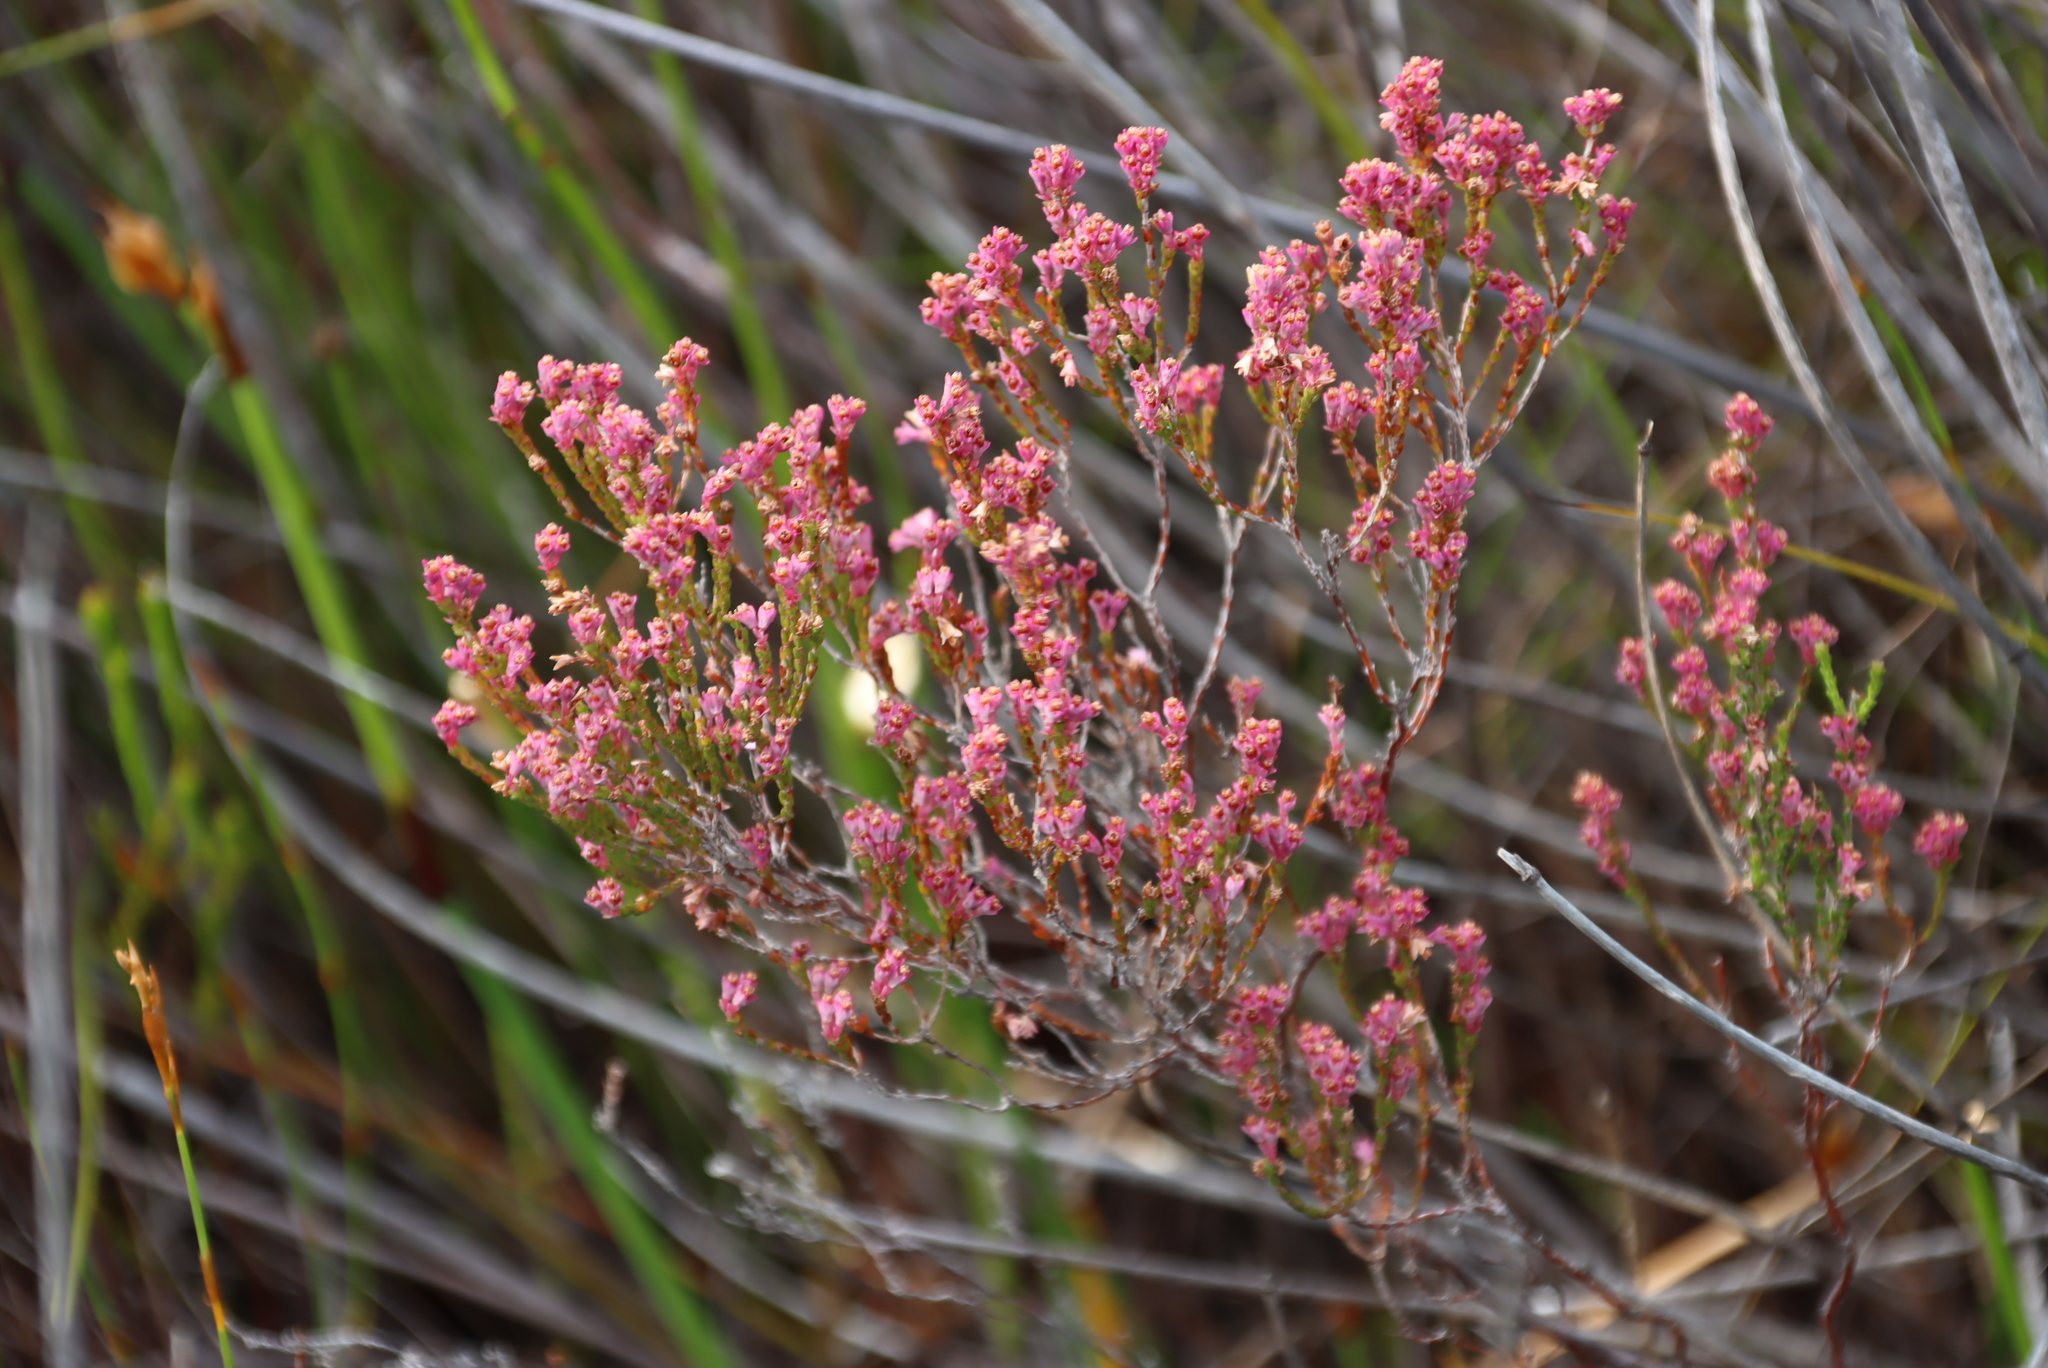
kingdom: Plantae
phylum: Tracheophyta
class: Magnoliopsida
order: Ericales
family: Ericaceae
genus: Erica
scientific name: Erica gnaphaloides
